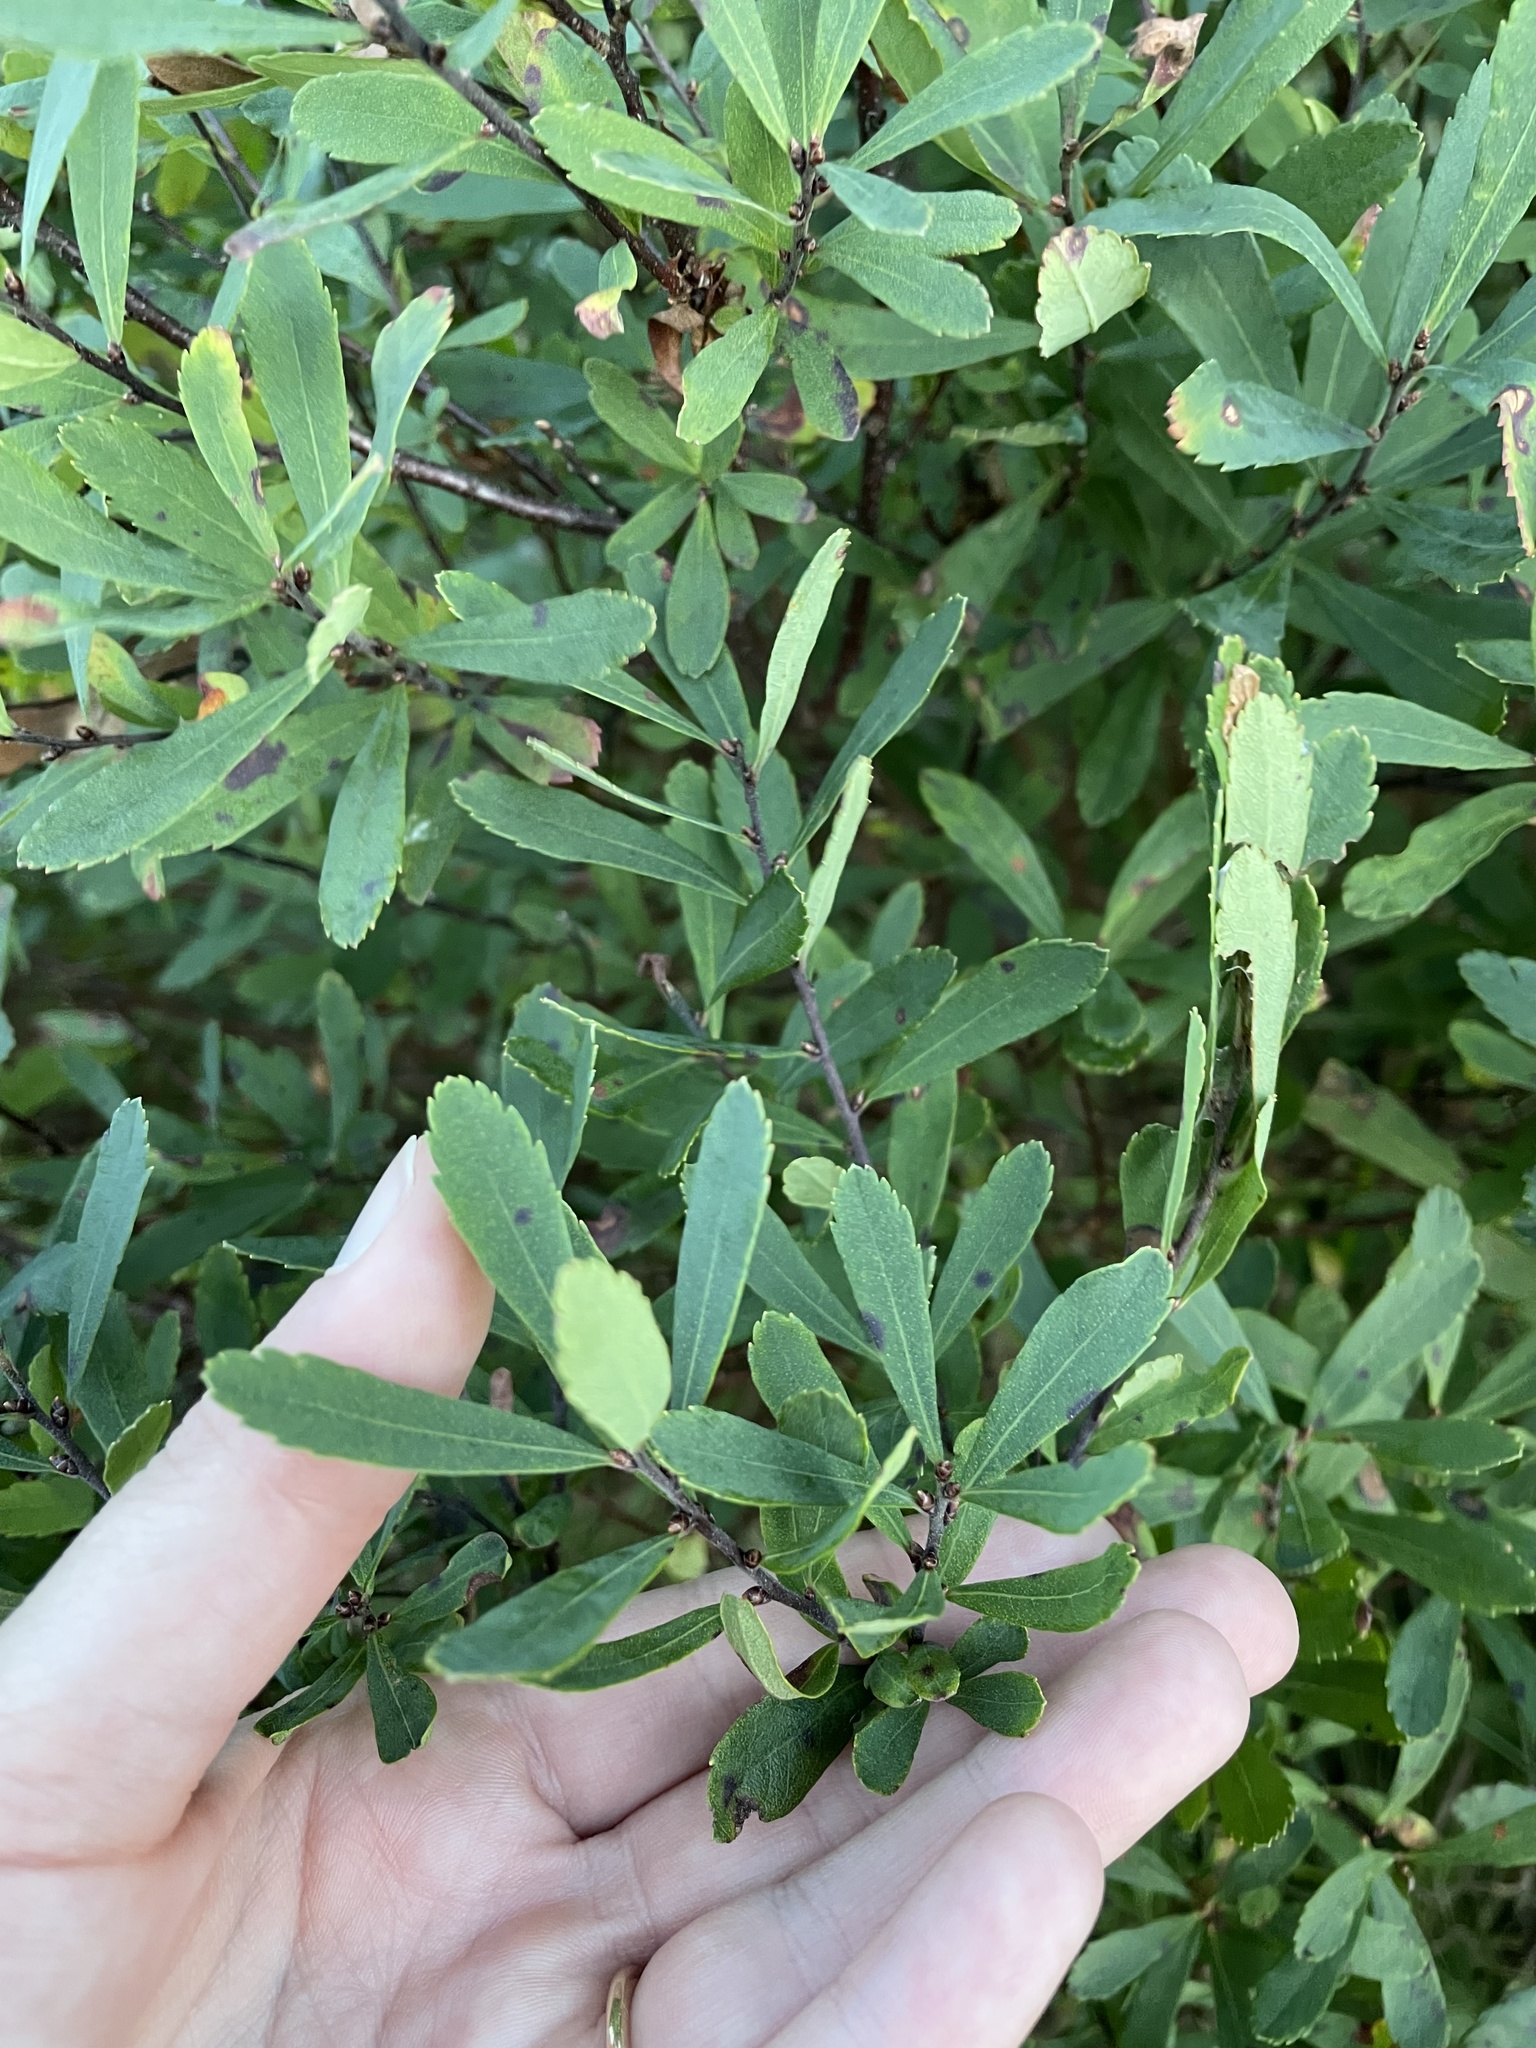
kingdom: Plantae
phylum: Tracheophyta
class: Magnoliopsida
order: Fagales
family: Myricaceae
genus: Myrica
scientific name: Myrica gale
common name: Sweet gale
